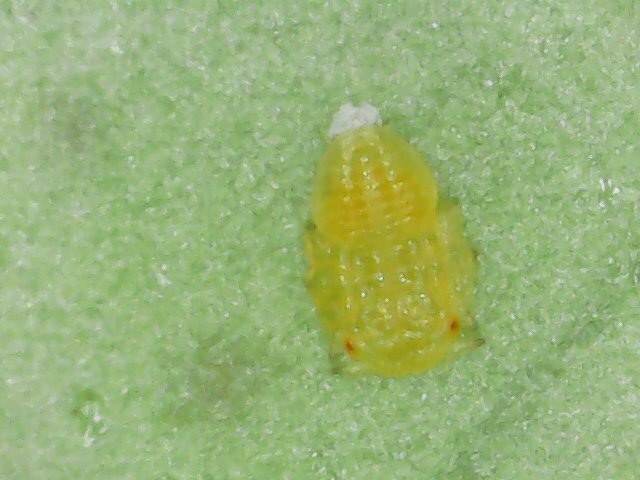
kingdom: Animalia
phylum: Arthropoda
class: Insecta
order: Hemiptera
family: Liviidae
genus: Diaphorina
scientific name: Diaphorina citri
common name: Asian citrus psyllid
